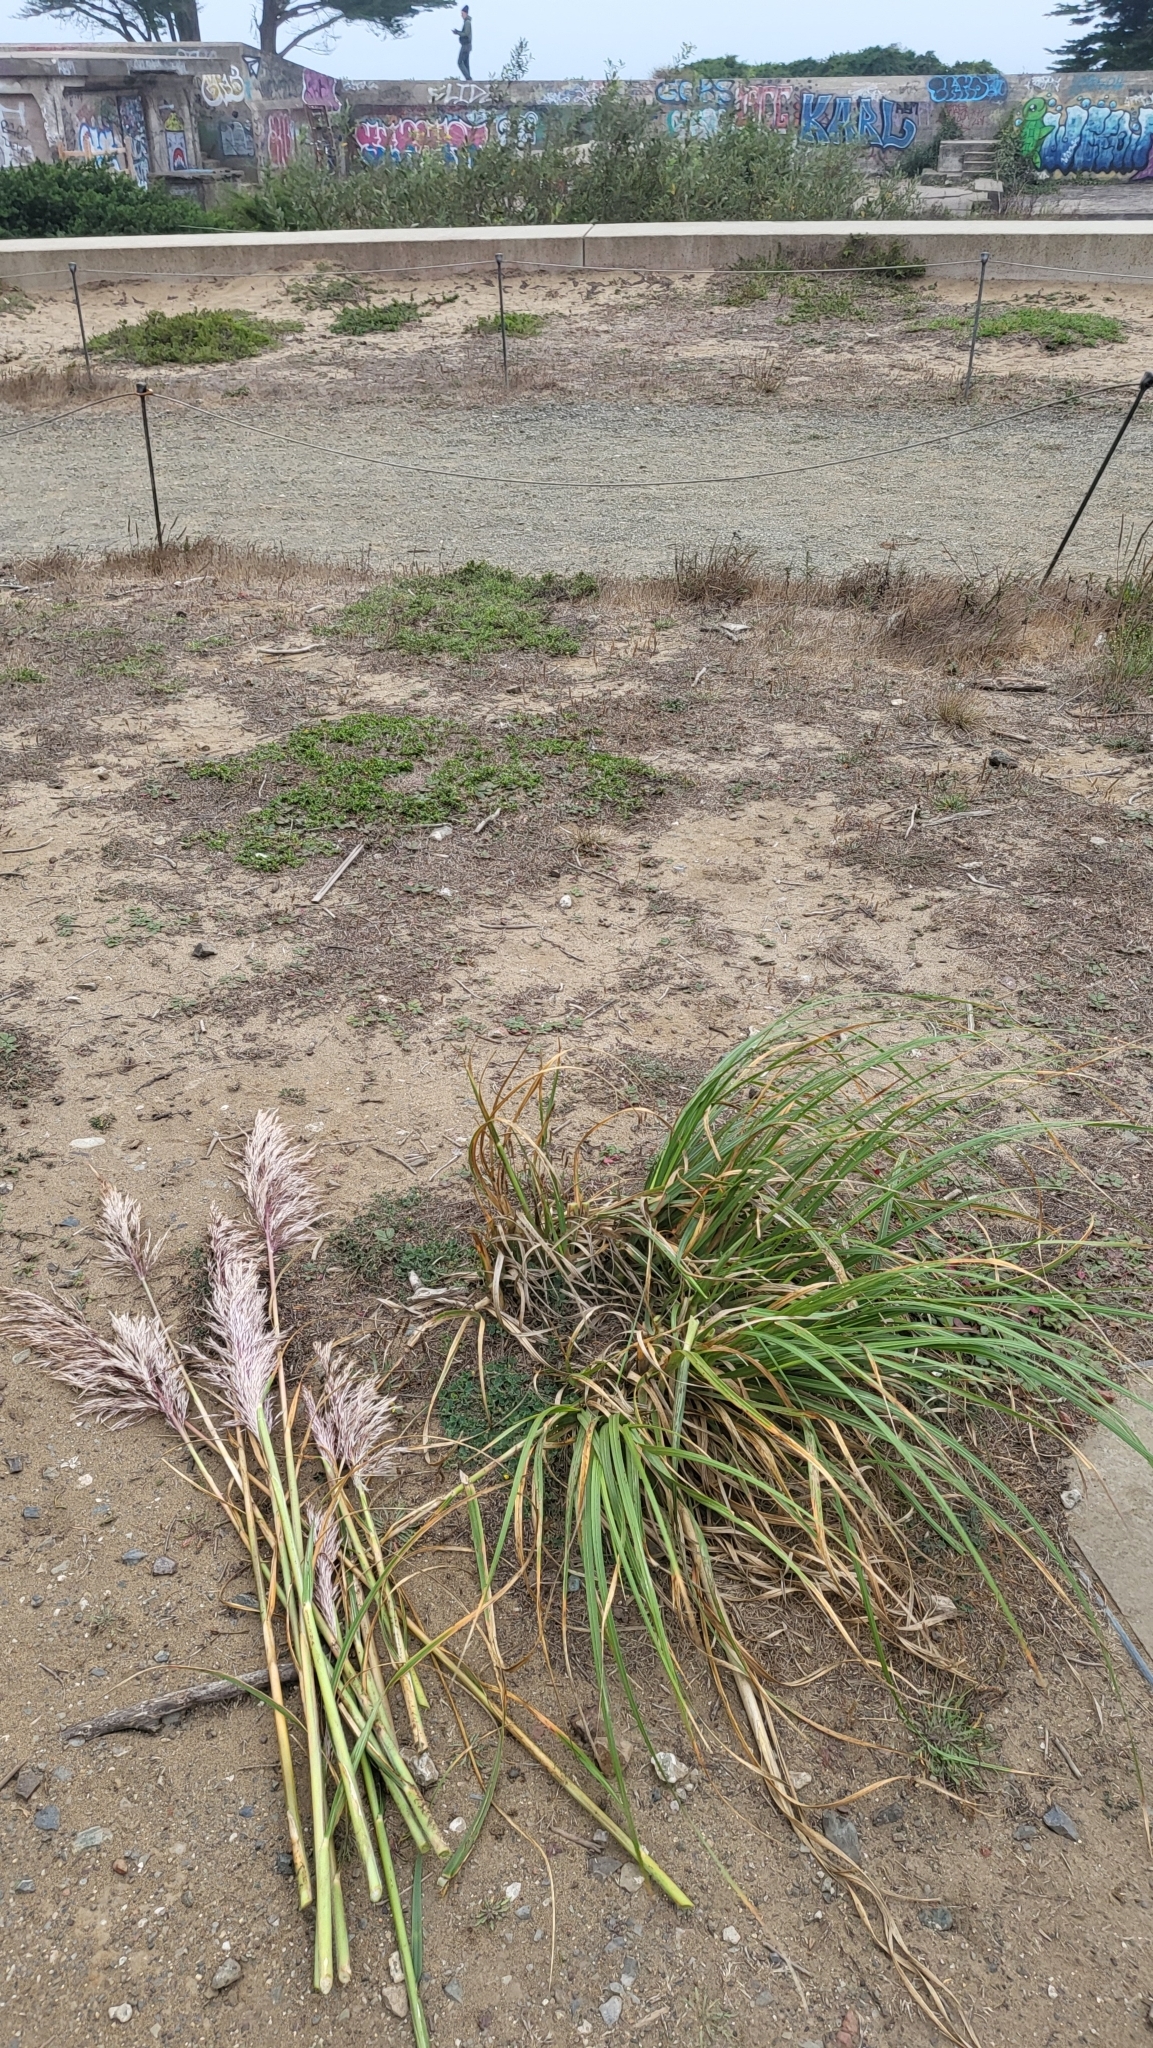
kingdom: Plantae
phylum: Tracheophyta
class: Liliopsida
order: Poales
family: Poaceae
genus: Cortaderia
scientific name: Cortaderia jubata
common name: Purple pampas grass
